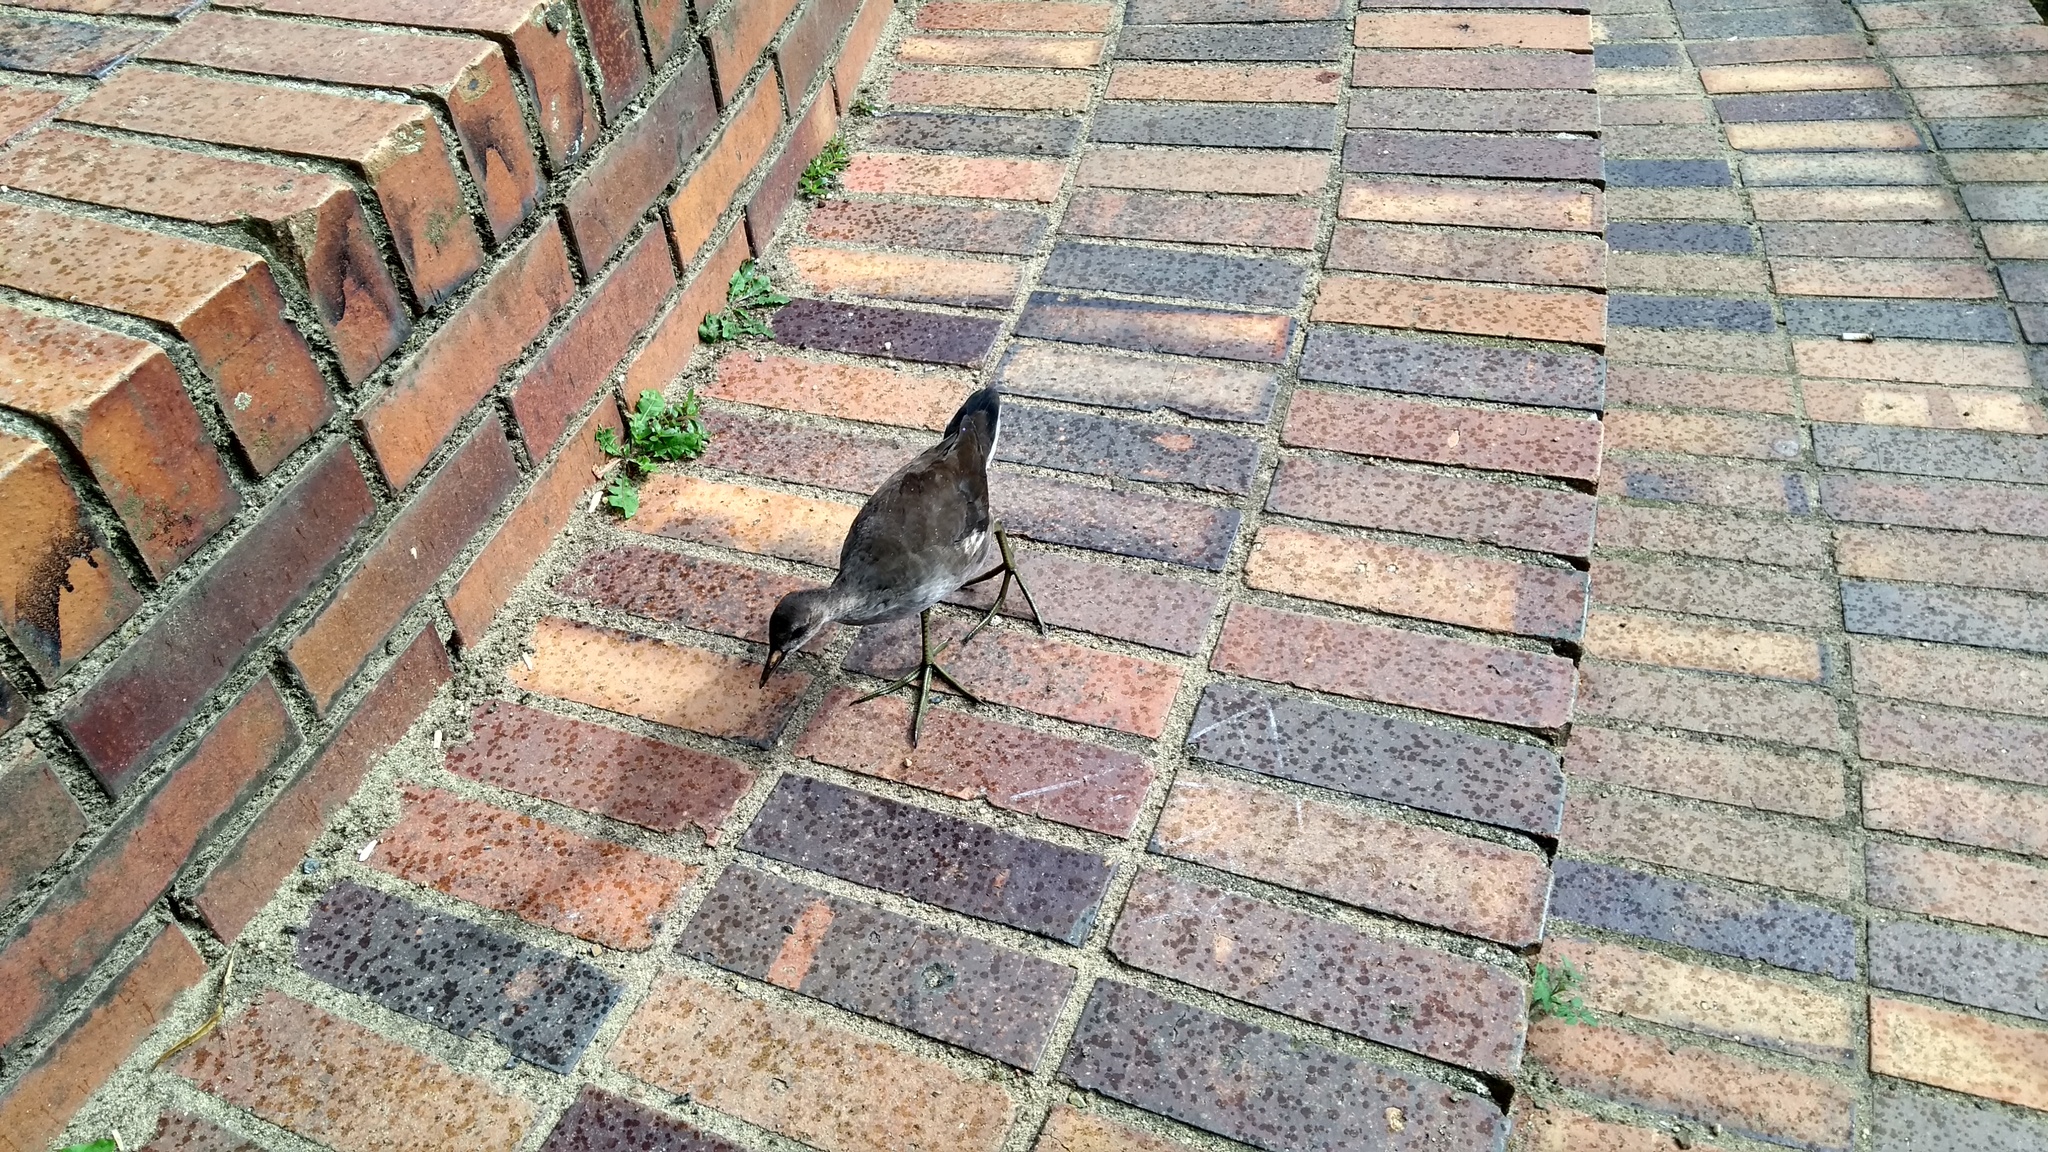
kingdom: Animalia
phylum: Chordata
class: Aves
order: Gruiformes
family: Rallidae
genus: Gallinula
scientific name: Gallinula chloropus
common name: Common moorhen
